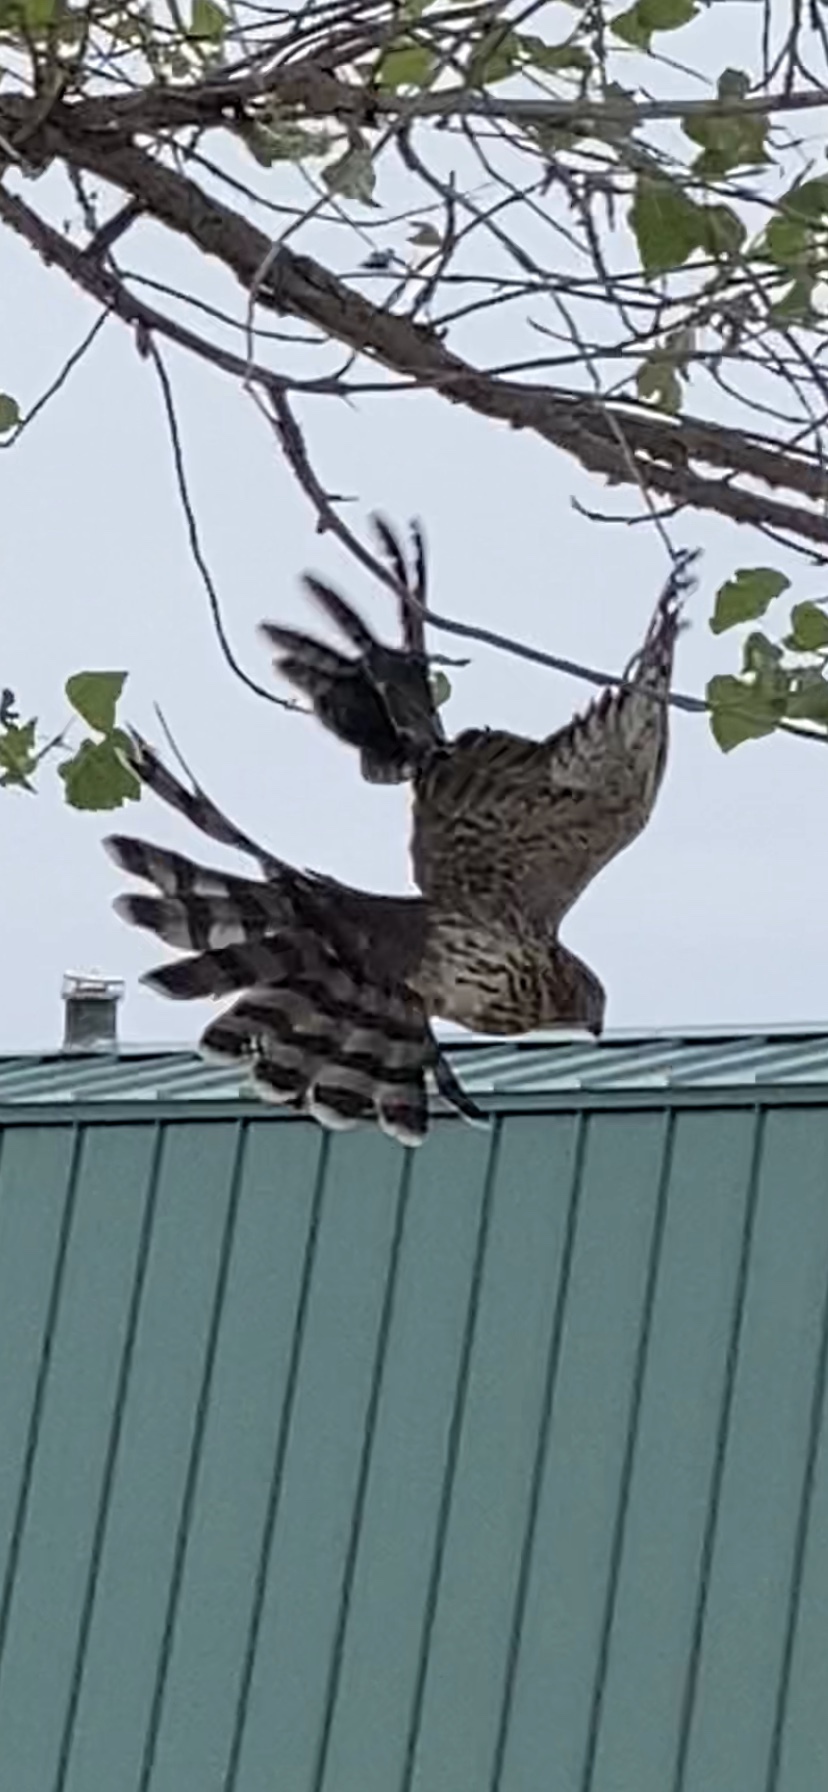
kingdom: Animalia
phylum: Chordata
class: Aves
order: Accipitriformes
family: Accipitridae
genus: Accipiter
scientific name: Accipiter cooperii
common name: Cooper's hawk
